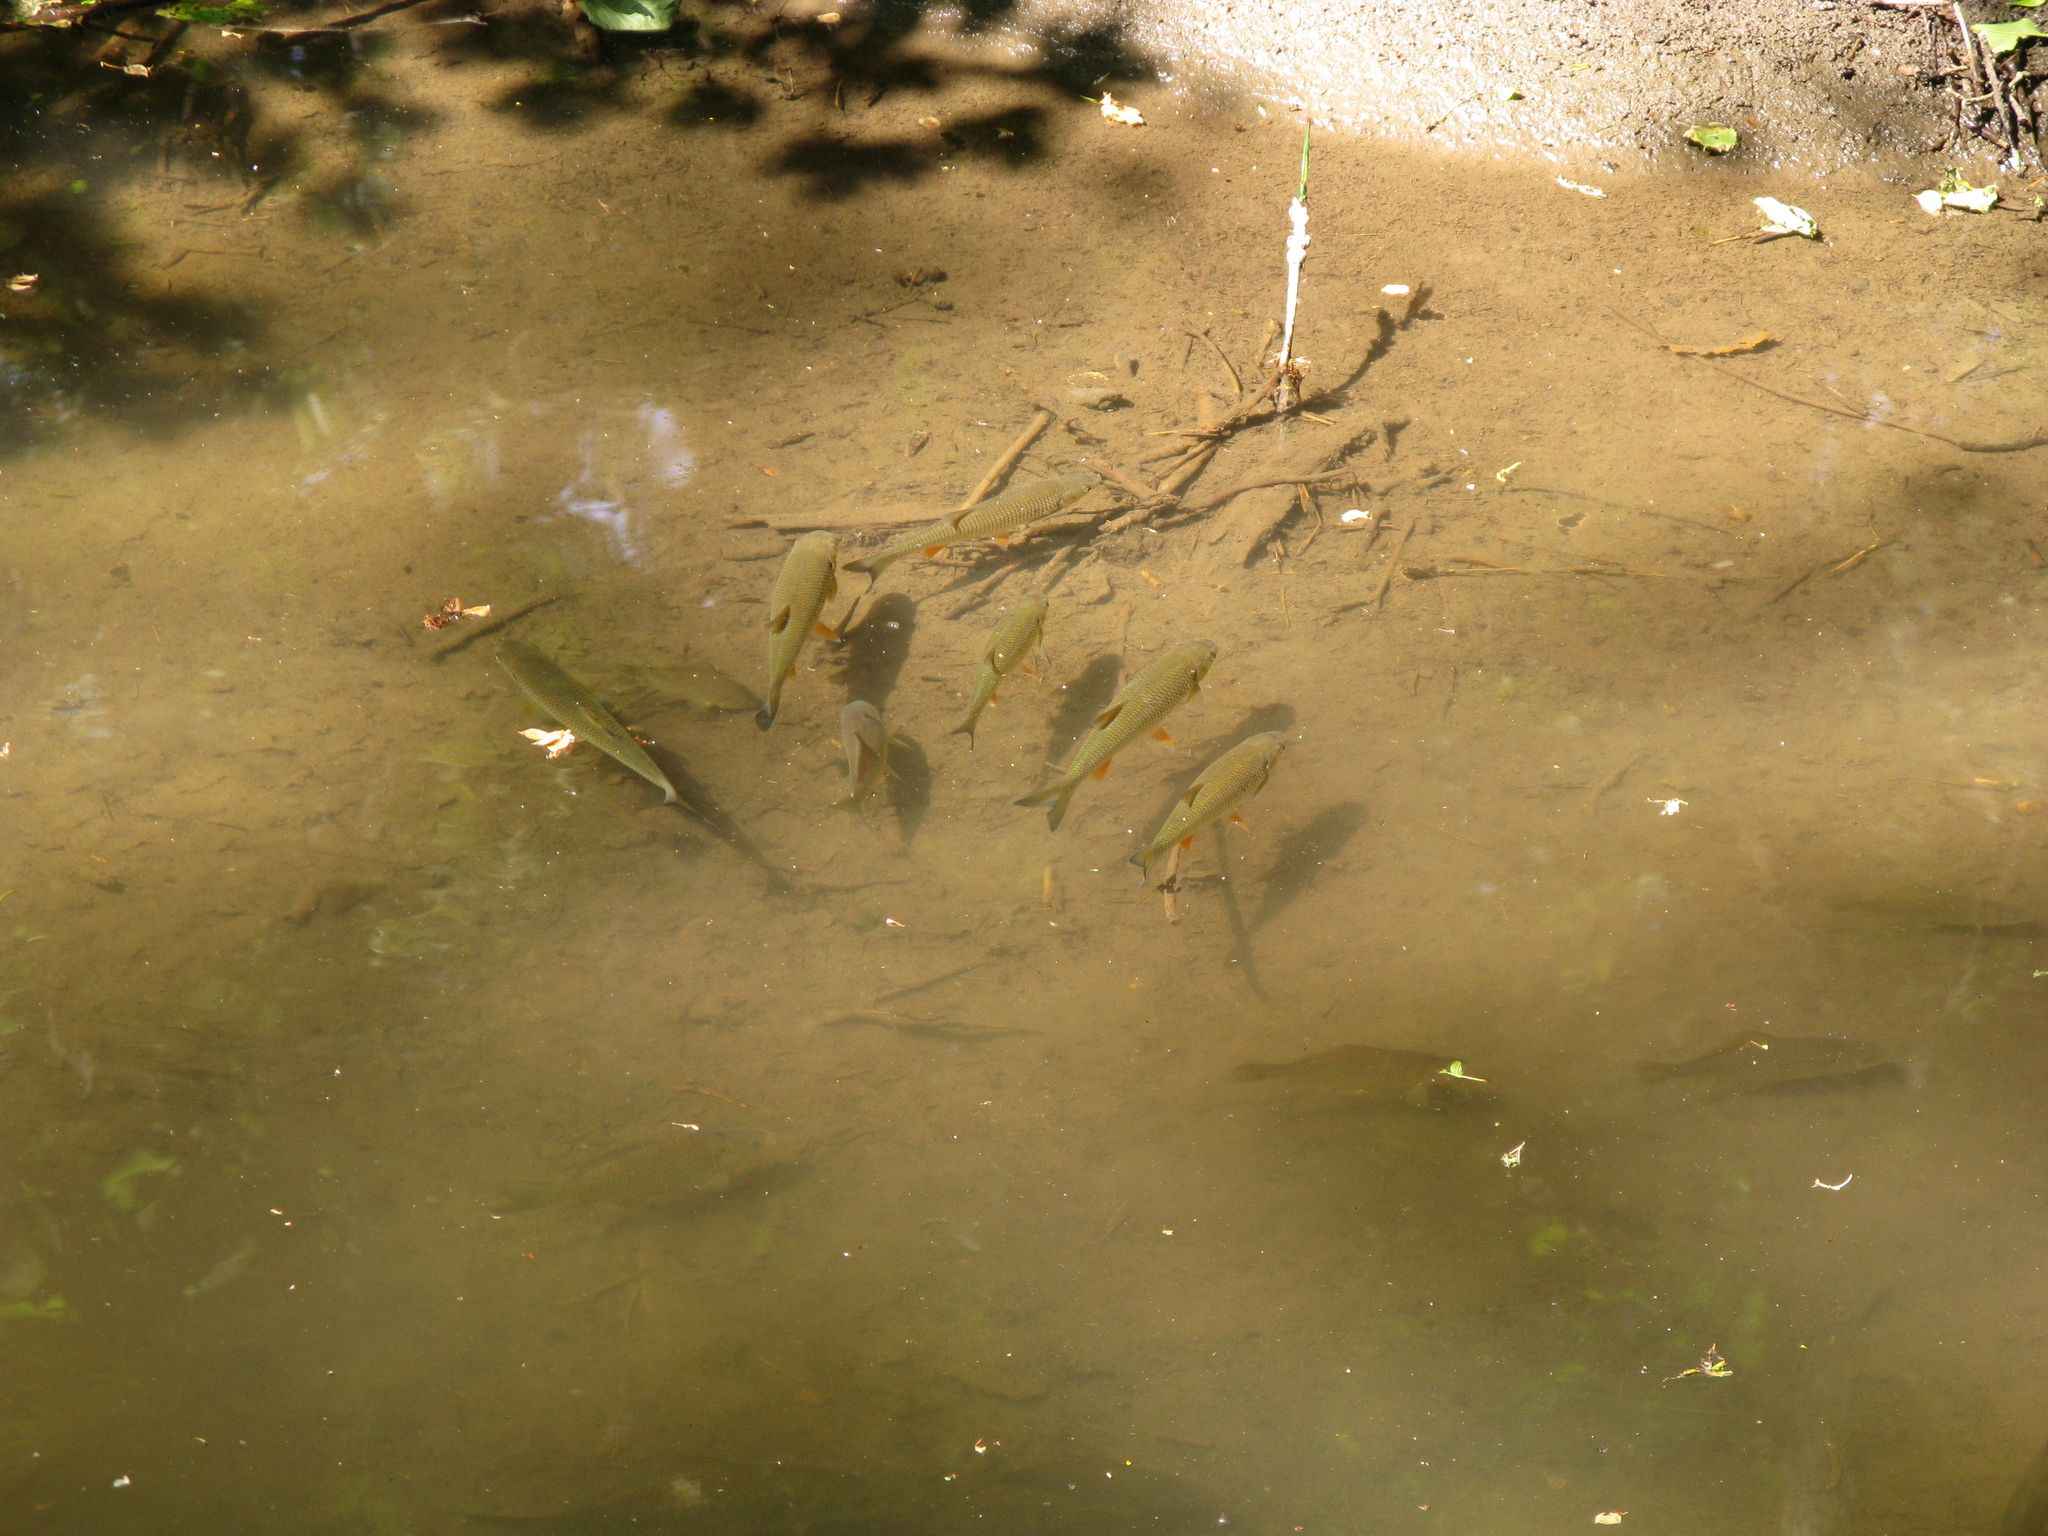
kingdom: Animalia
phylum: Chordata
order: Cypriniformes
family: Cyprinidae
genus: Squalius
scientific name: Squalius cephalus
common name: Chub
